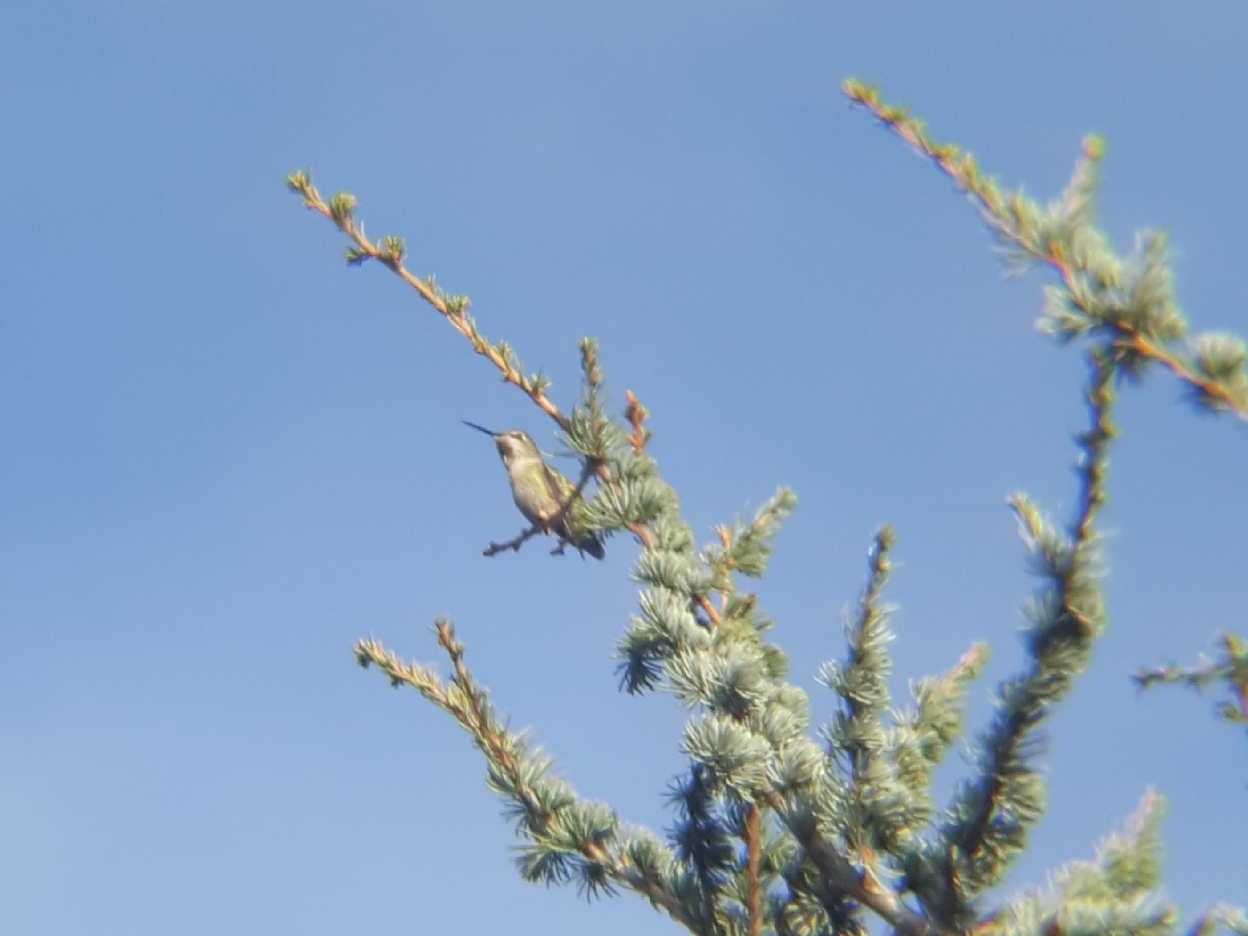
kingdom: Animalia
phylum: Chordata
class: Aves
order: Apodiformes
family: Trochilidae
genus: Calypte
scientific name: Calypte anna
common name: Anna's hummingbird
